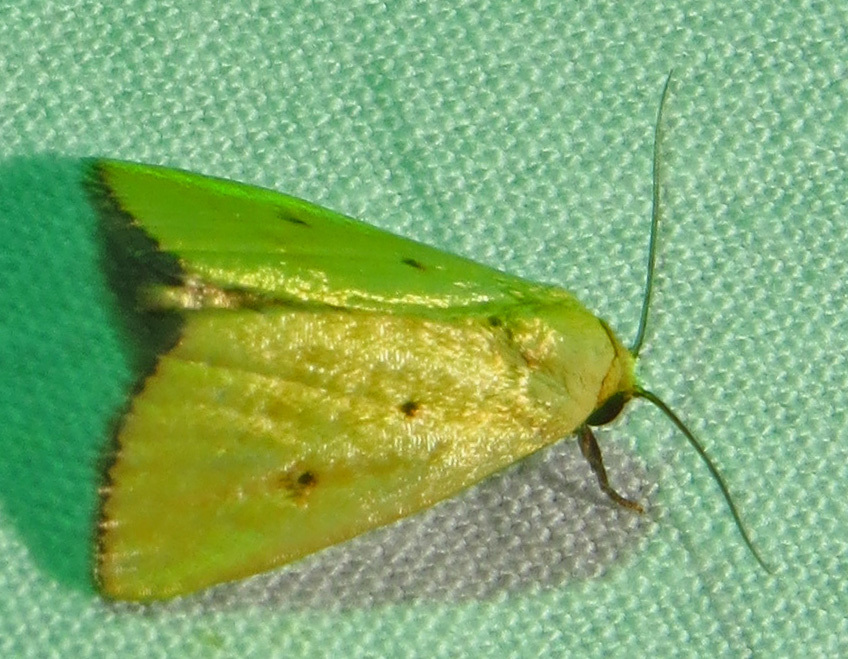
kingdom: Animalia
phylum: Arthropoda
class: Insecta
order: Lepidoptera
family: Noctuidae
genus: Marimatha
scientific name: Marimatha nigrofimbria
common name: Black-bordered lemon moth
